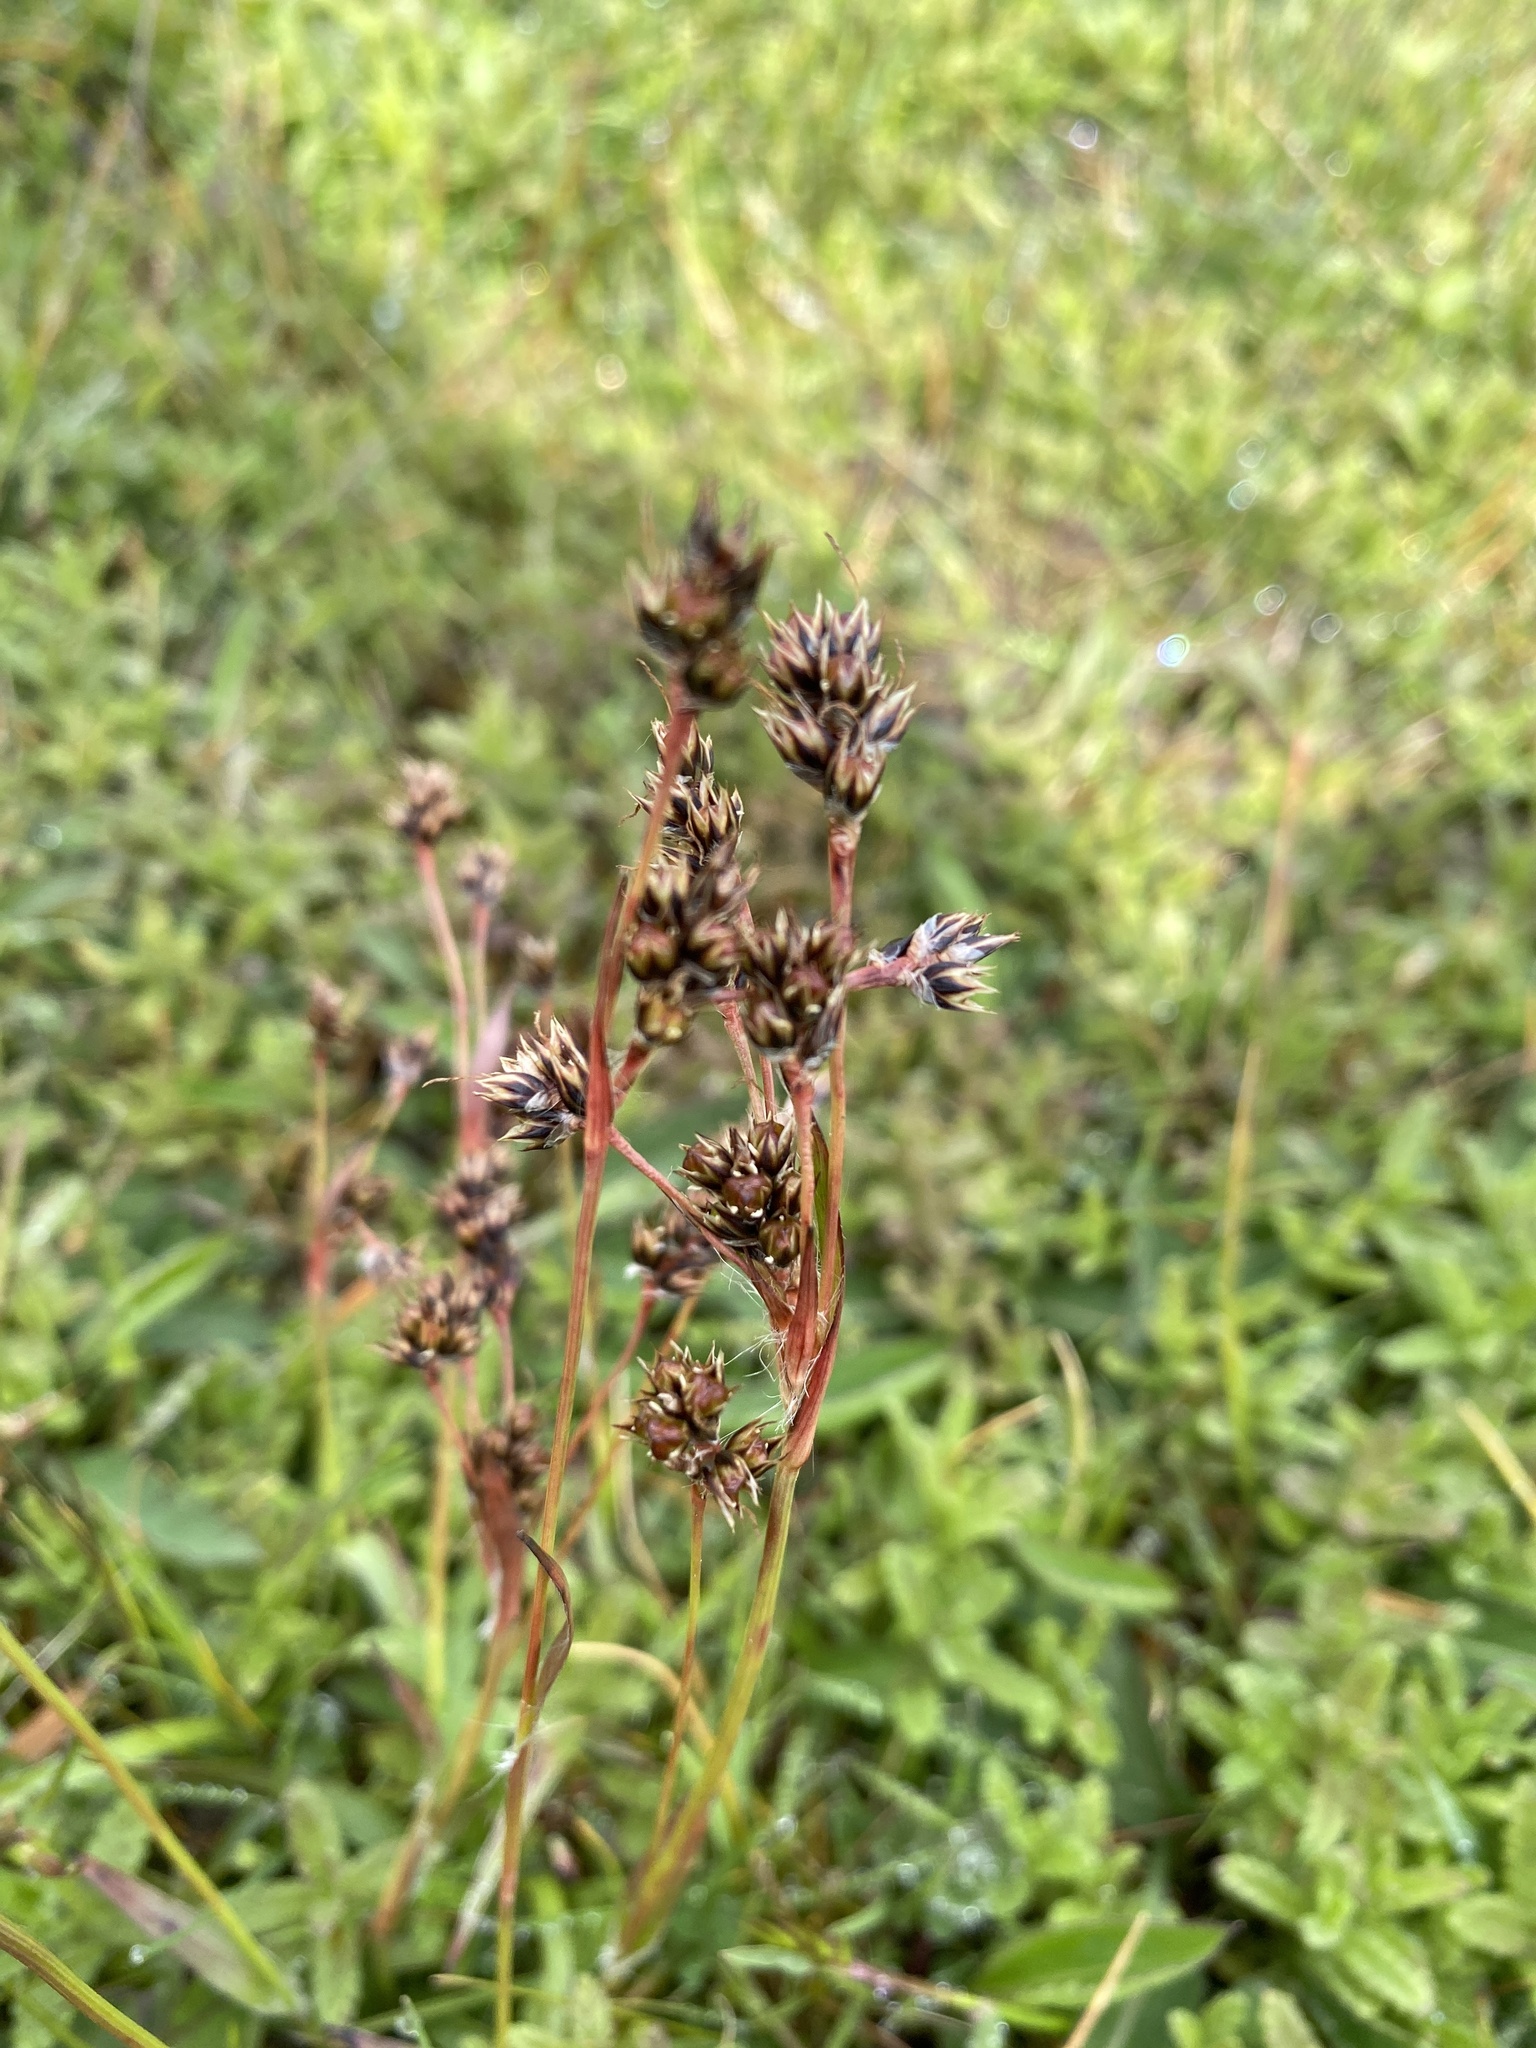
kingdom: Plantae
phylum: Tracheophyta
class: Liliopsida
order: Poales
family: Juncaceae
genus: Luzula
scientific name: Luzula campestris
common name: Field wood-rush
